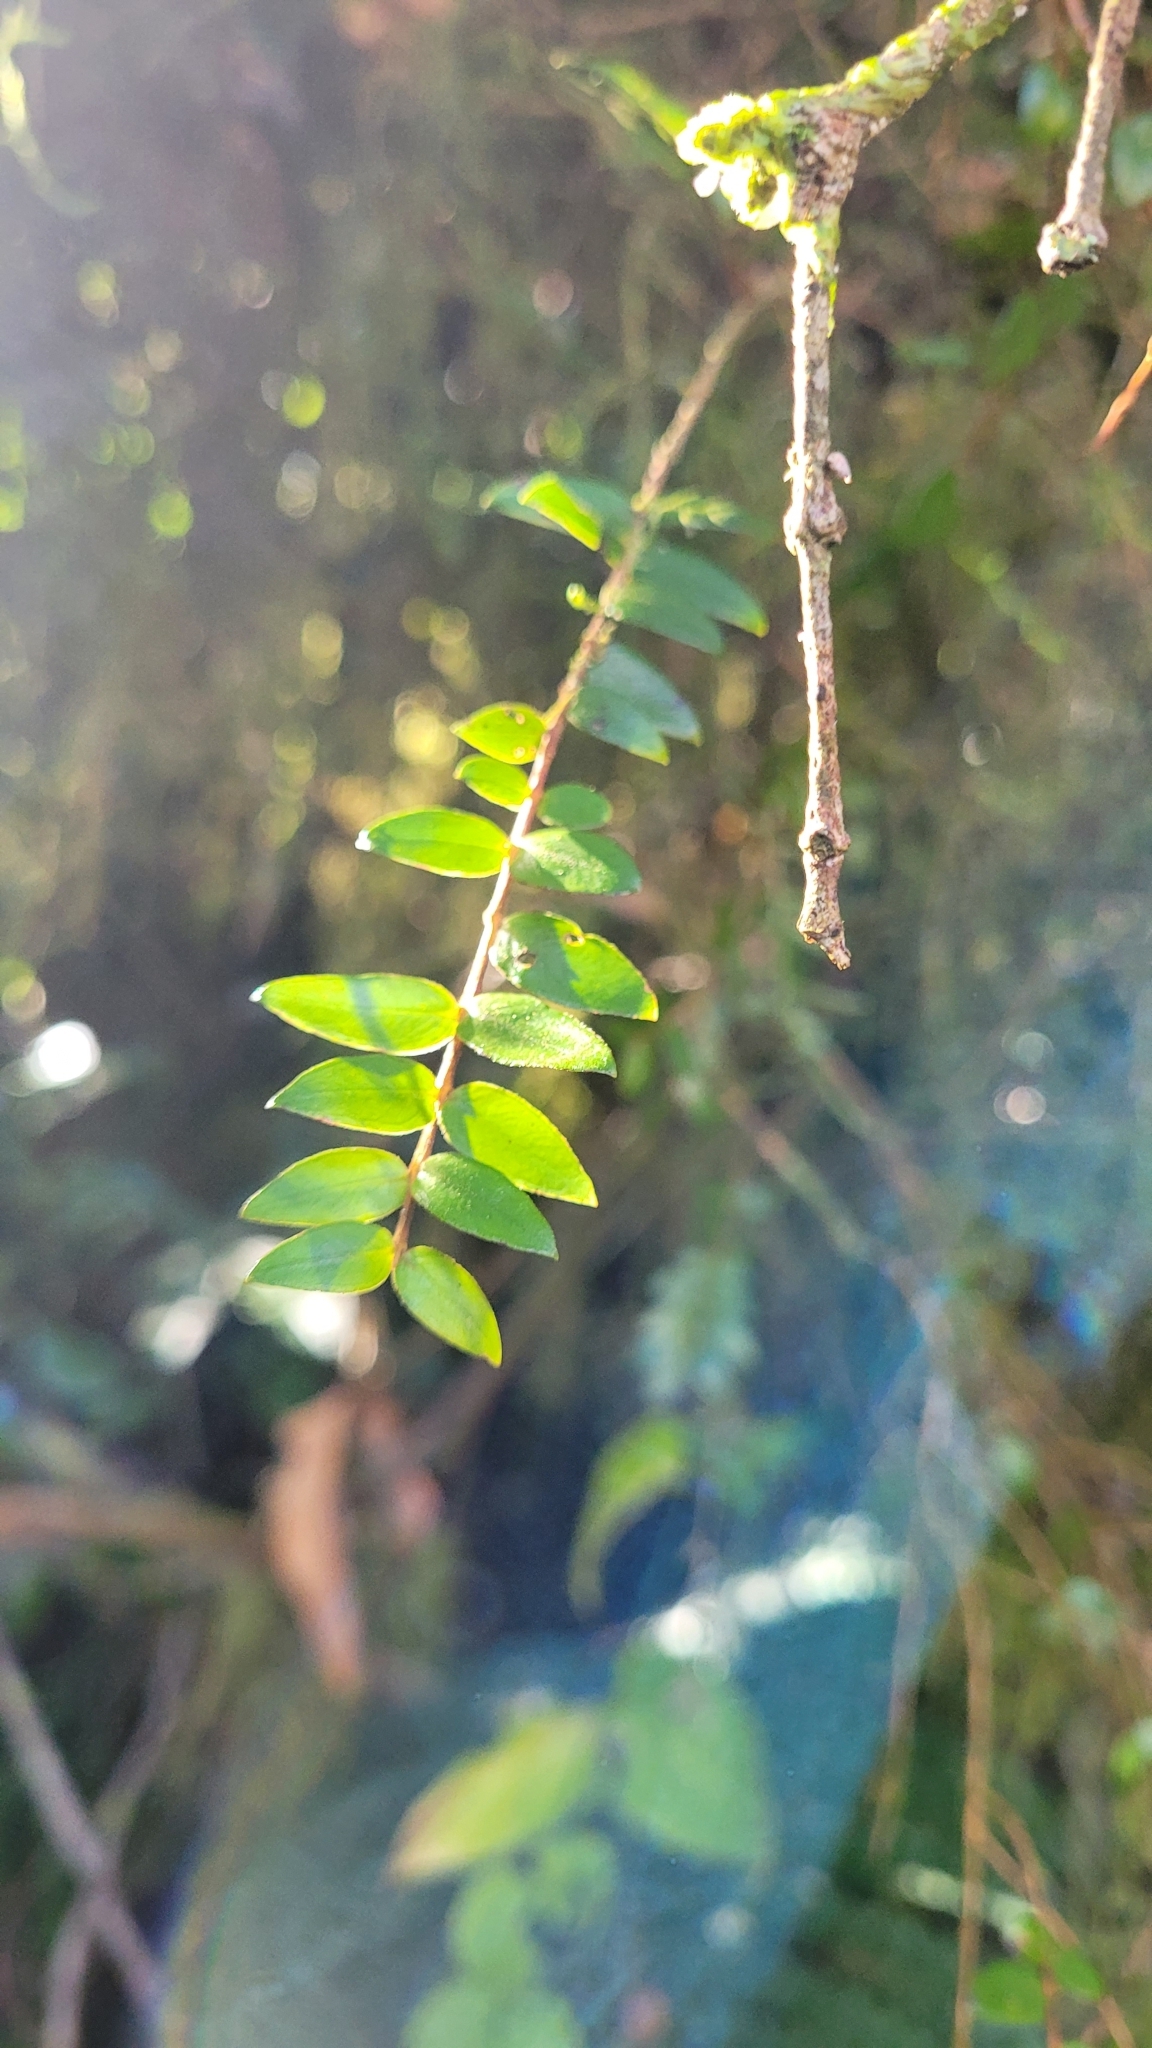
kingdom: Plantae
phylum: Tracheophyta
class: Magnoliopsida
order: Myrtales
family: Myrtaceae
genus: Metrosideros
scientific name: Metrosideros diffusa
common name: Small ratavine
